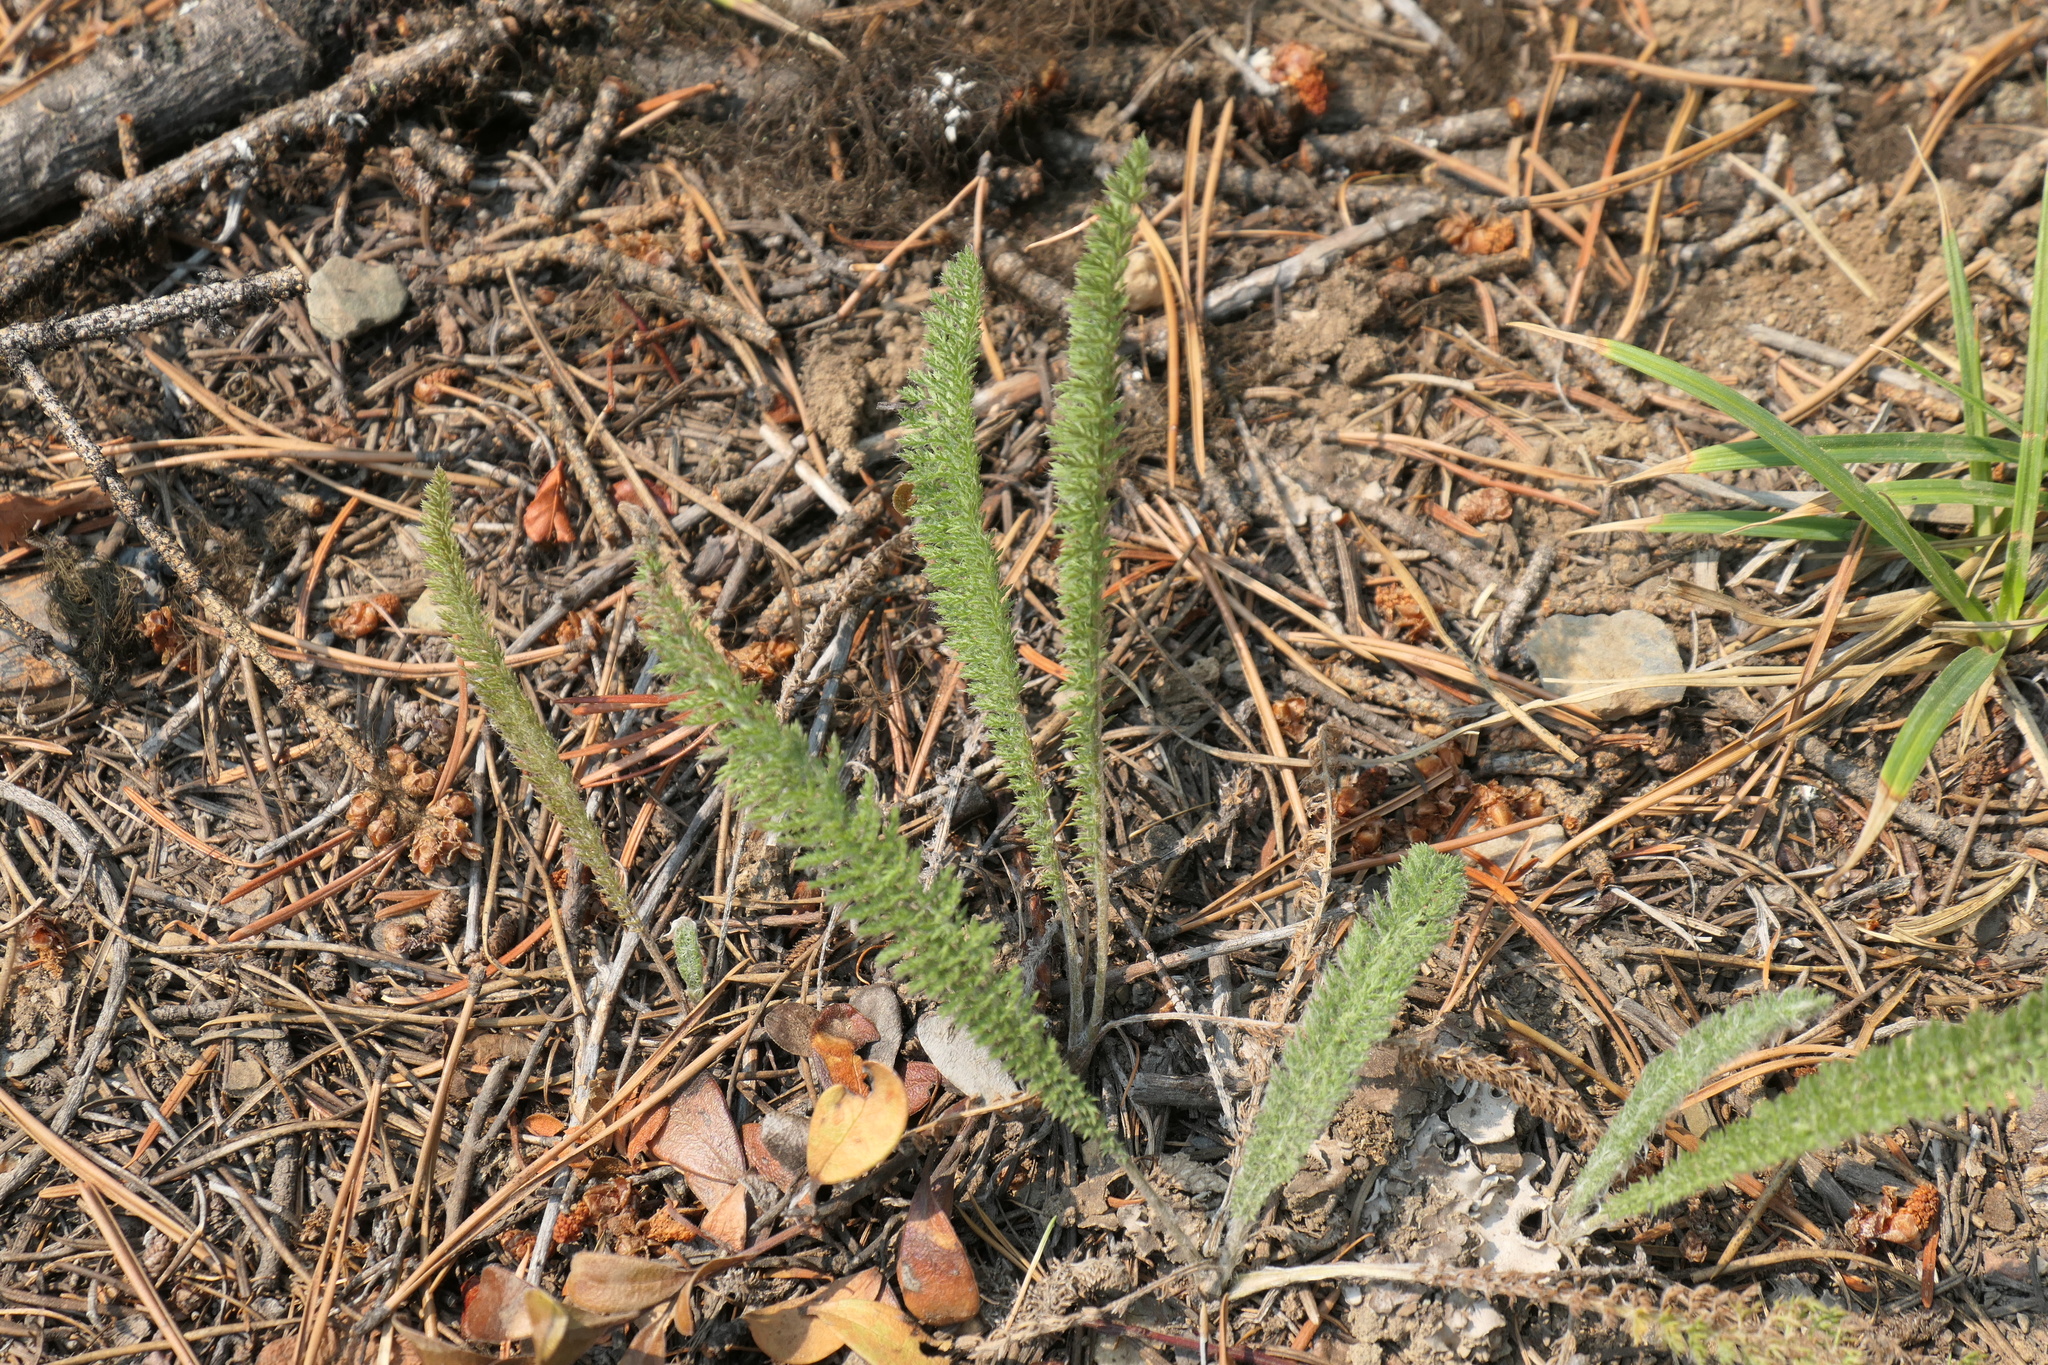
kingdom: Plantae
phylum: Tracheophyta
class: Magnoliopsida
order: Asterales
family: Asteraceae
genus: Achillea
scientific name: Achillea millefolium
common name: Yarrow
